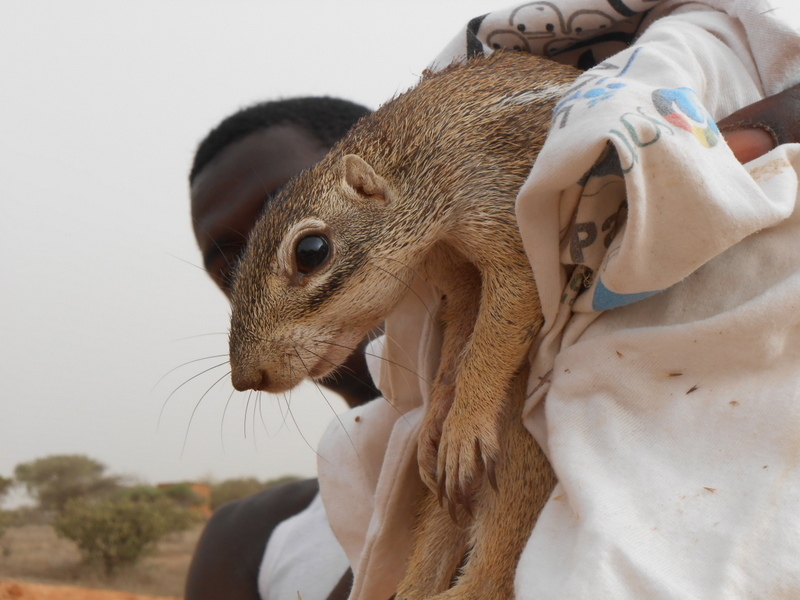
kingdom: Animalia
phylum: Chordata
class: Mammalia
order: Rodentia
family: Sciuridae
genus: Xerus
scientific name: Xerus erythropus
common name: Striped ground squirrel
